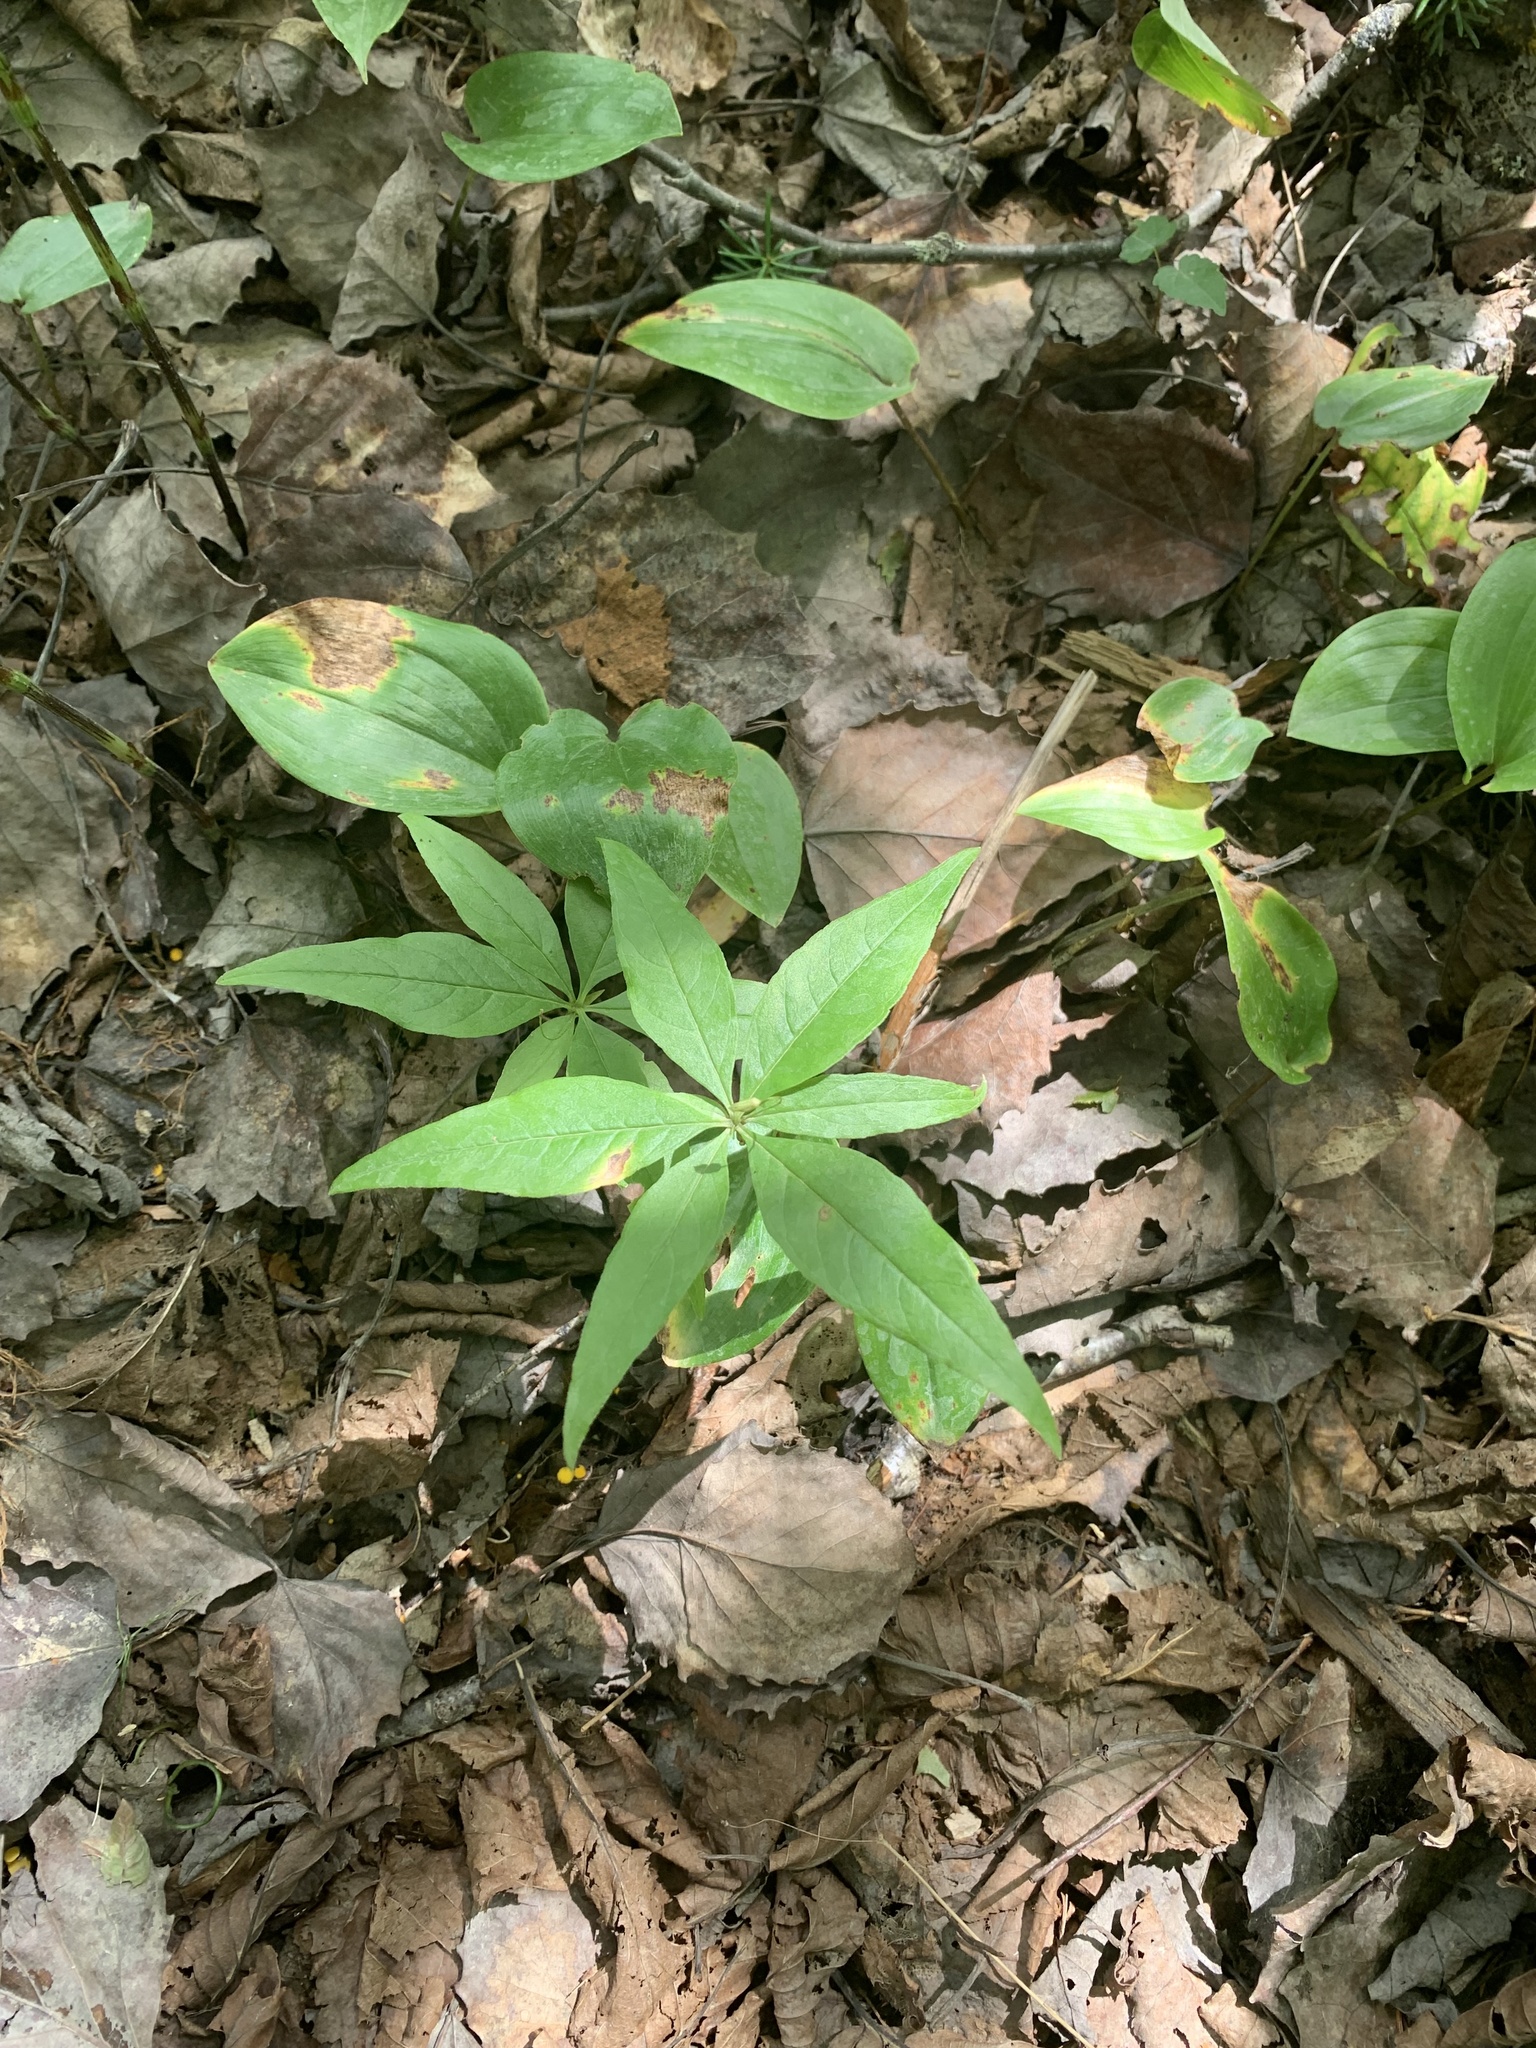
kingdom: Plantae
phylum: Tracheophyta
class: Magnoliopsida
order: Ericales
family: Primulaceae
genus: Lysimachia
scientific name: Lysimachia borealis
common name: American starflower
